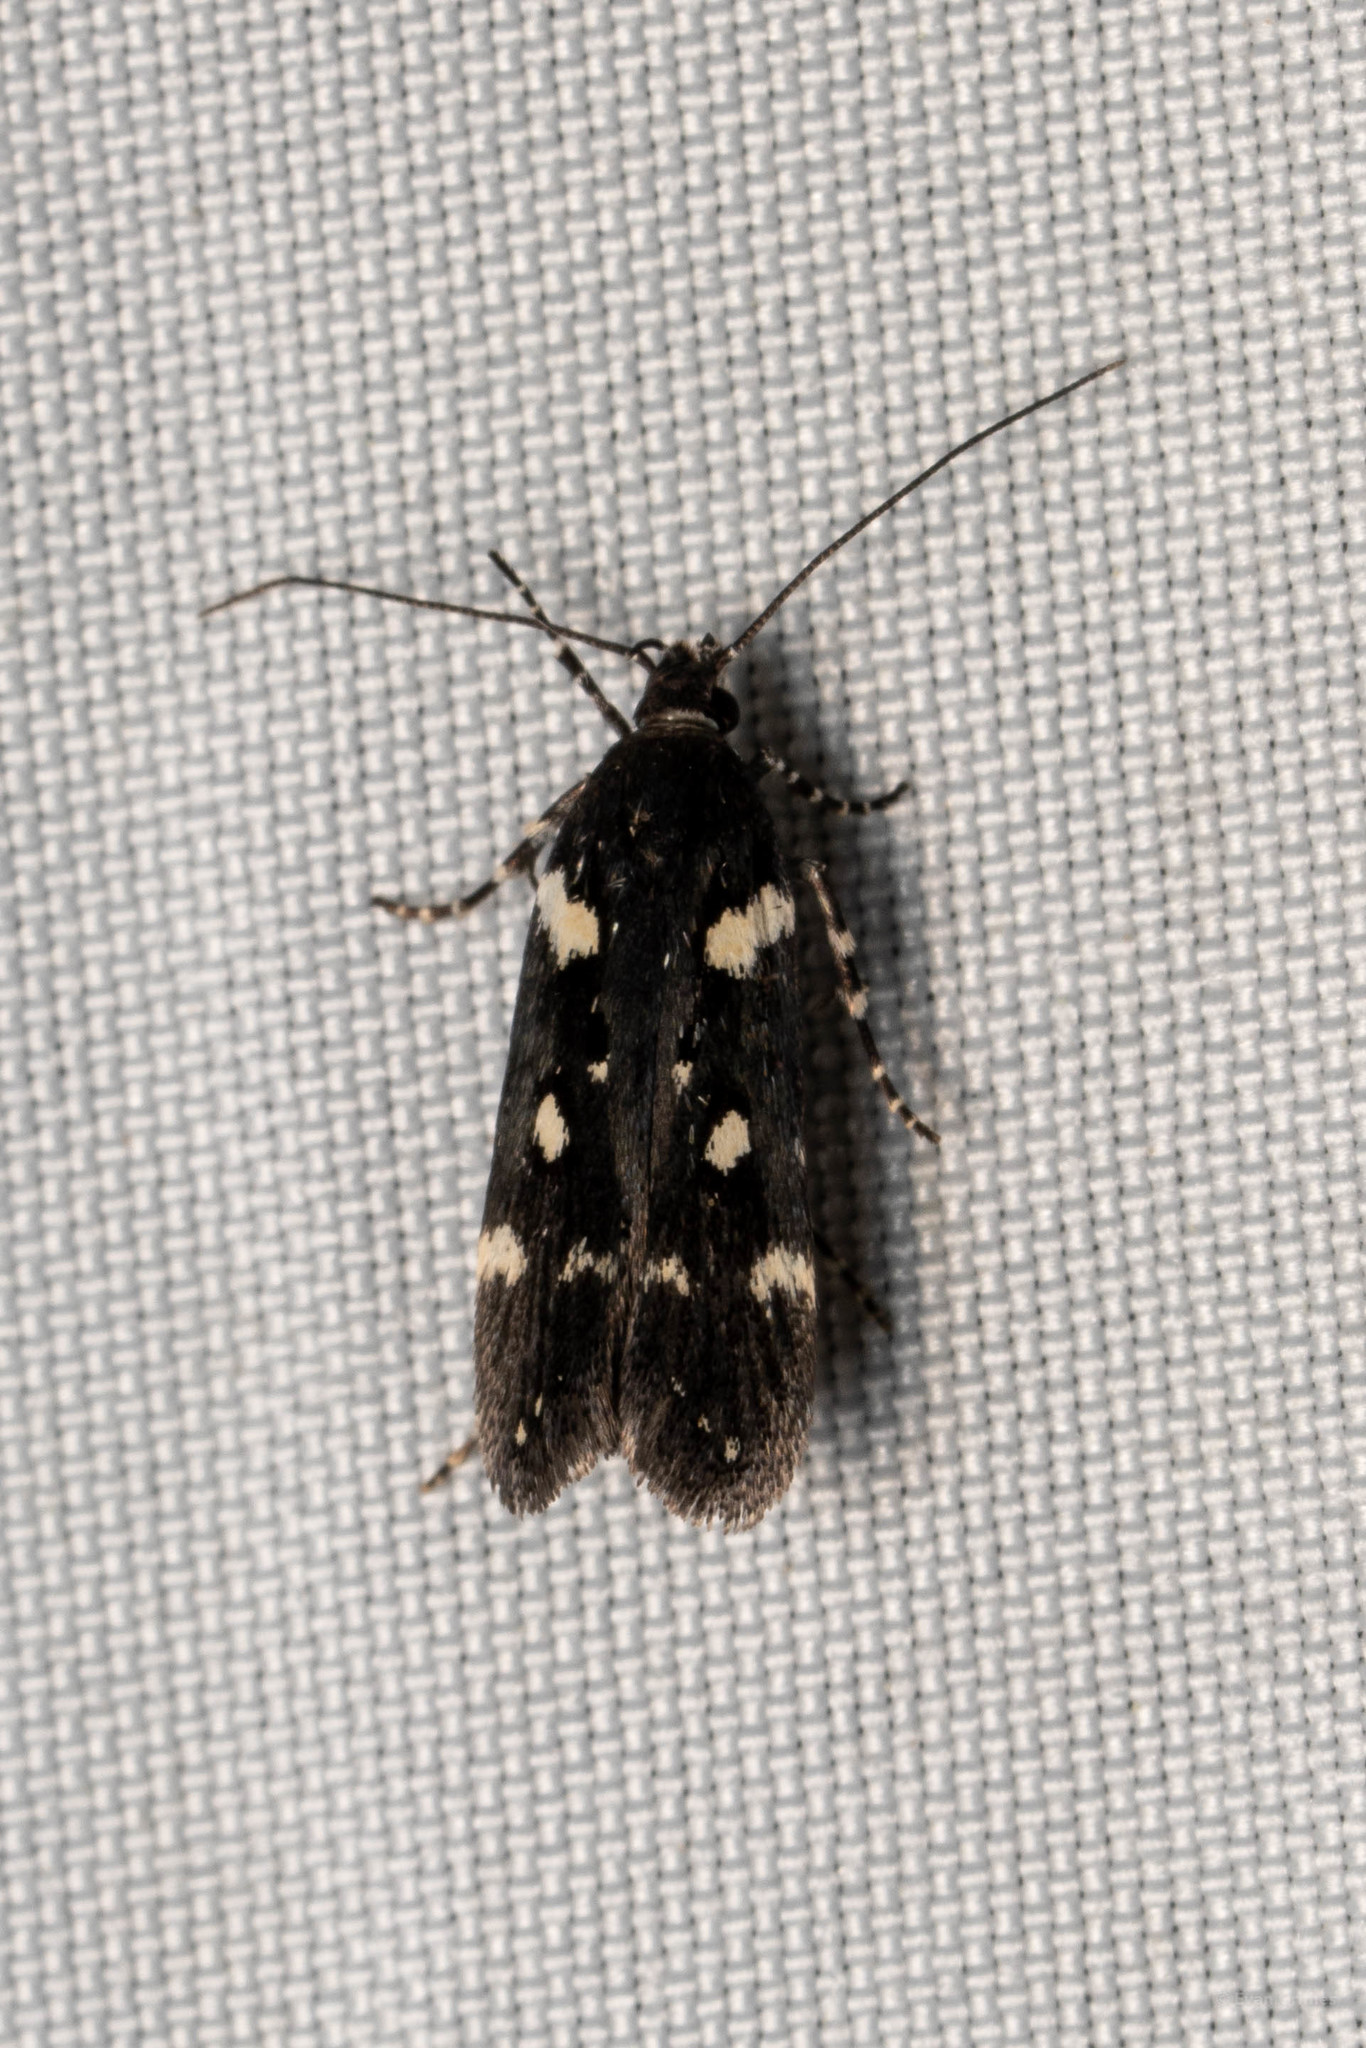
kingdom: Animalia
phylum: Arthropoda
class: Insecta
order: Lepidoptera
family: Gelechiidae
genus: Aroga
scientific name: Aroga compositella
